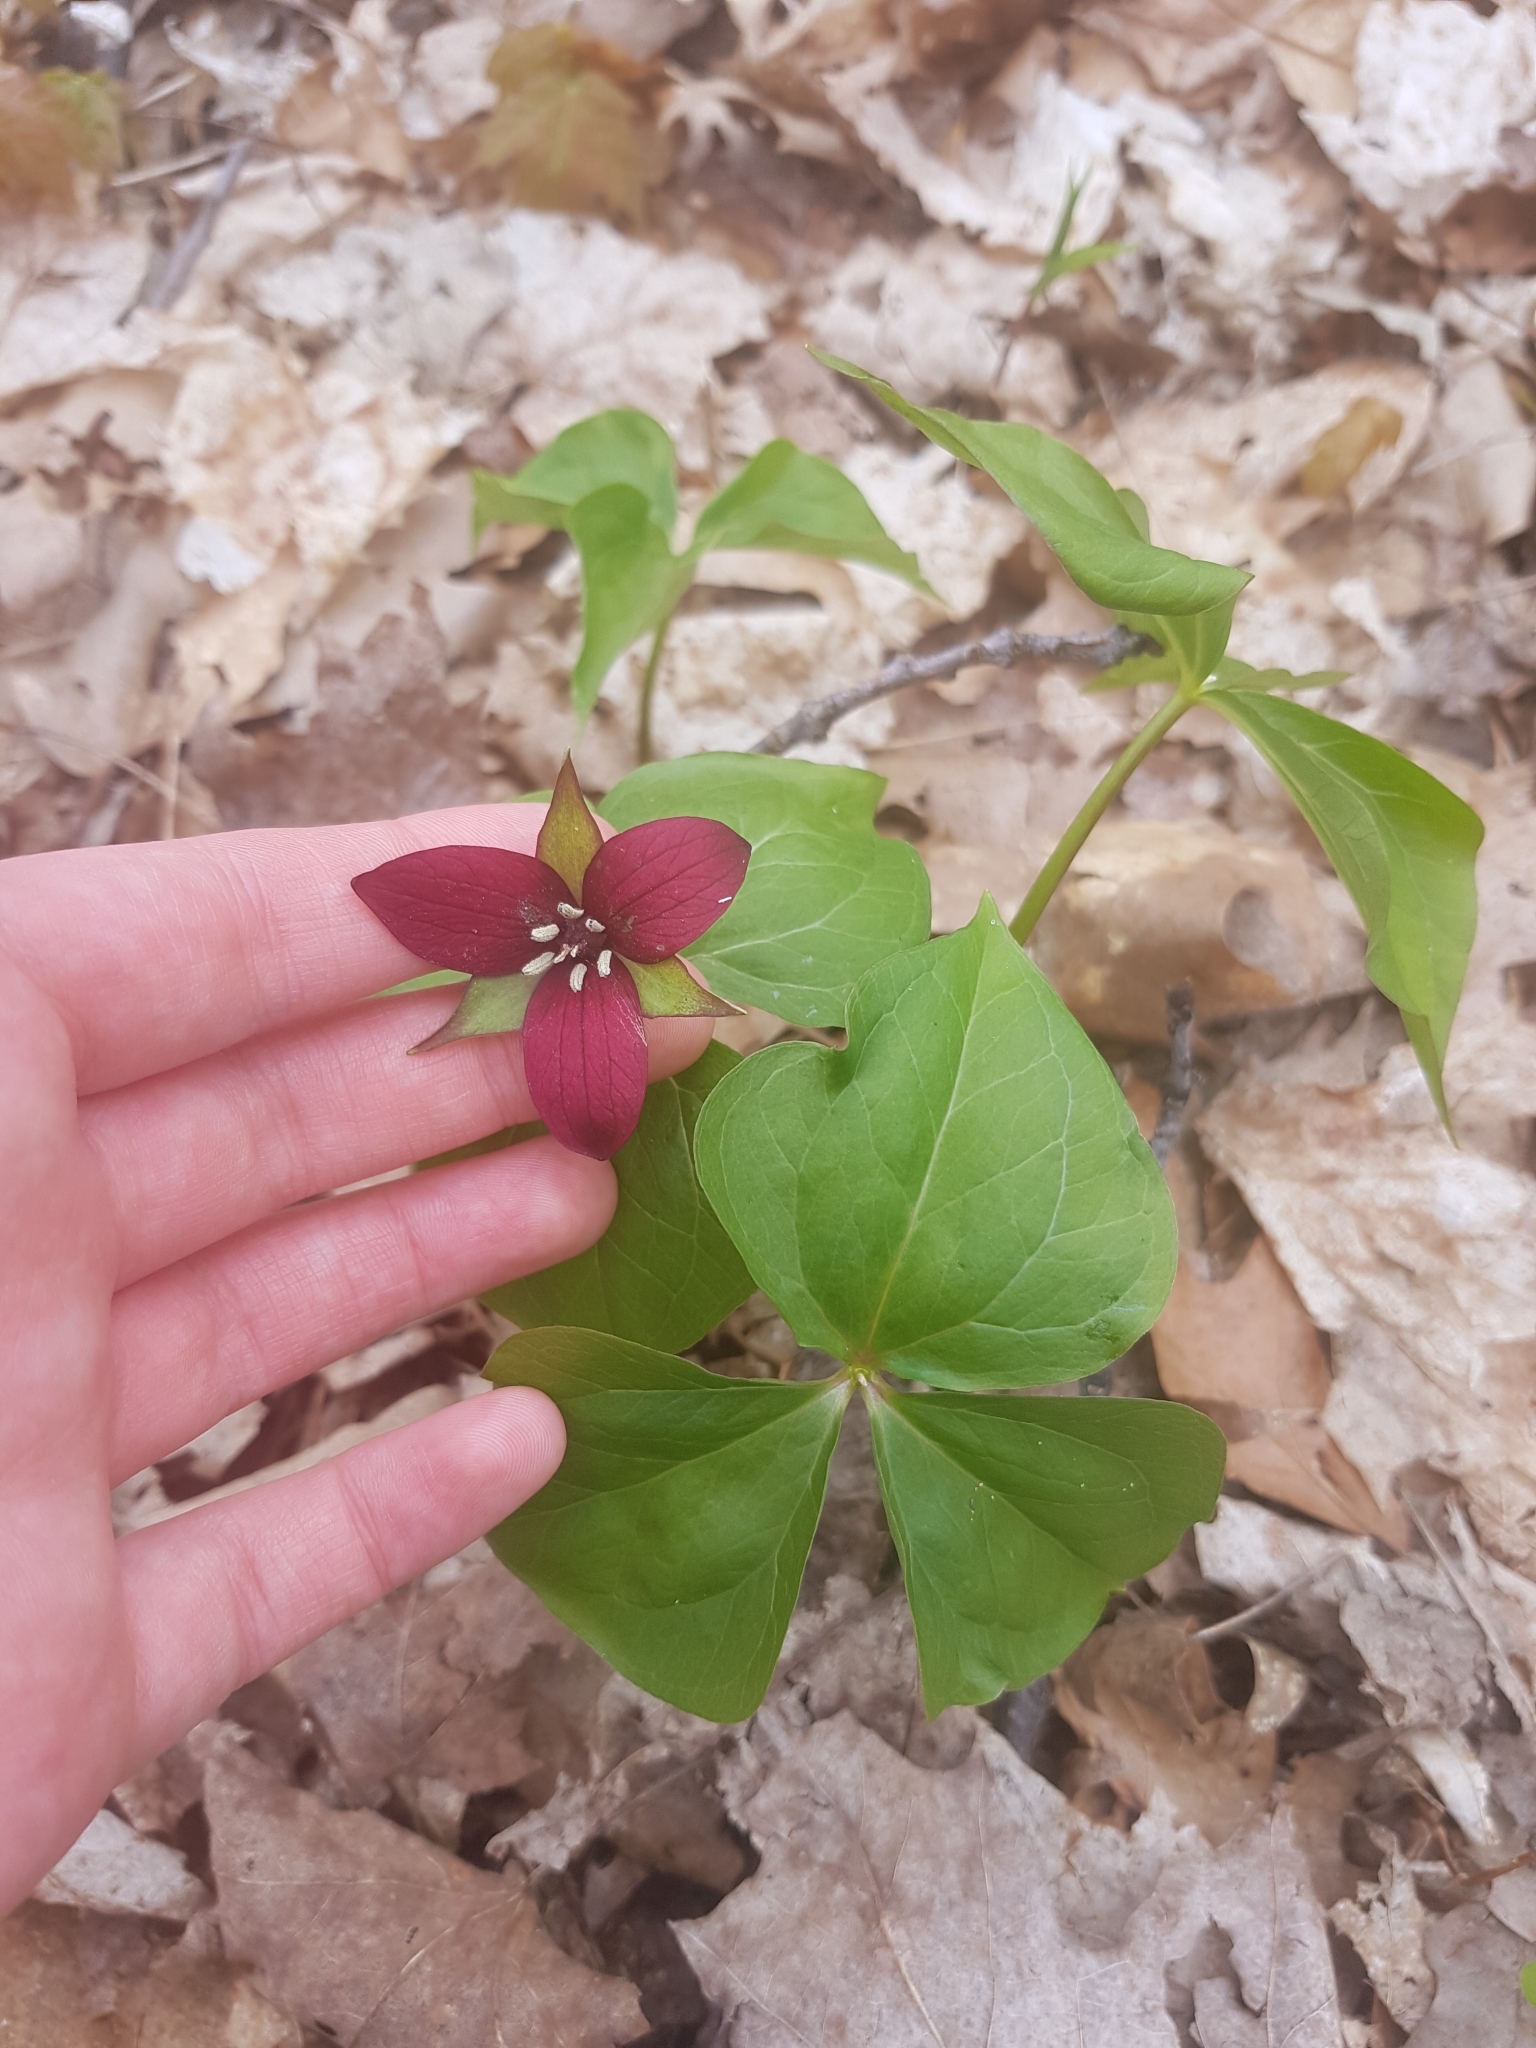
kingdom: Plantae
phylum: Tracheophyta
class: Liliopsida
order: Liliales
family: Melanthiaceae
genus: Trillium
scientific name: Trillium erectum
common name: Purple trillium
